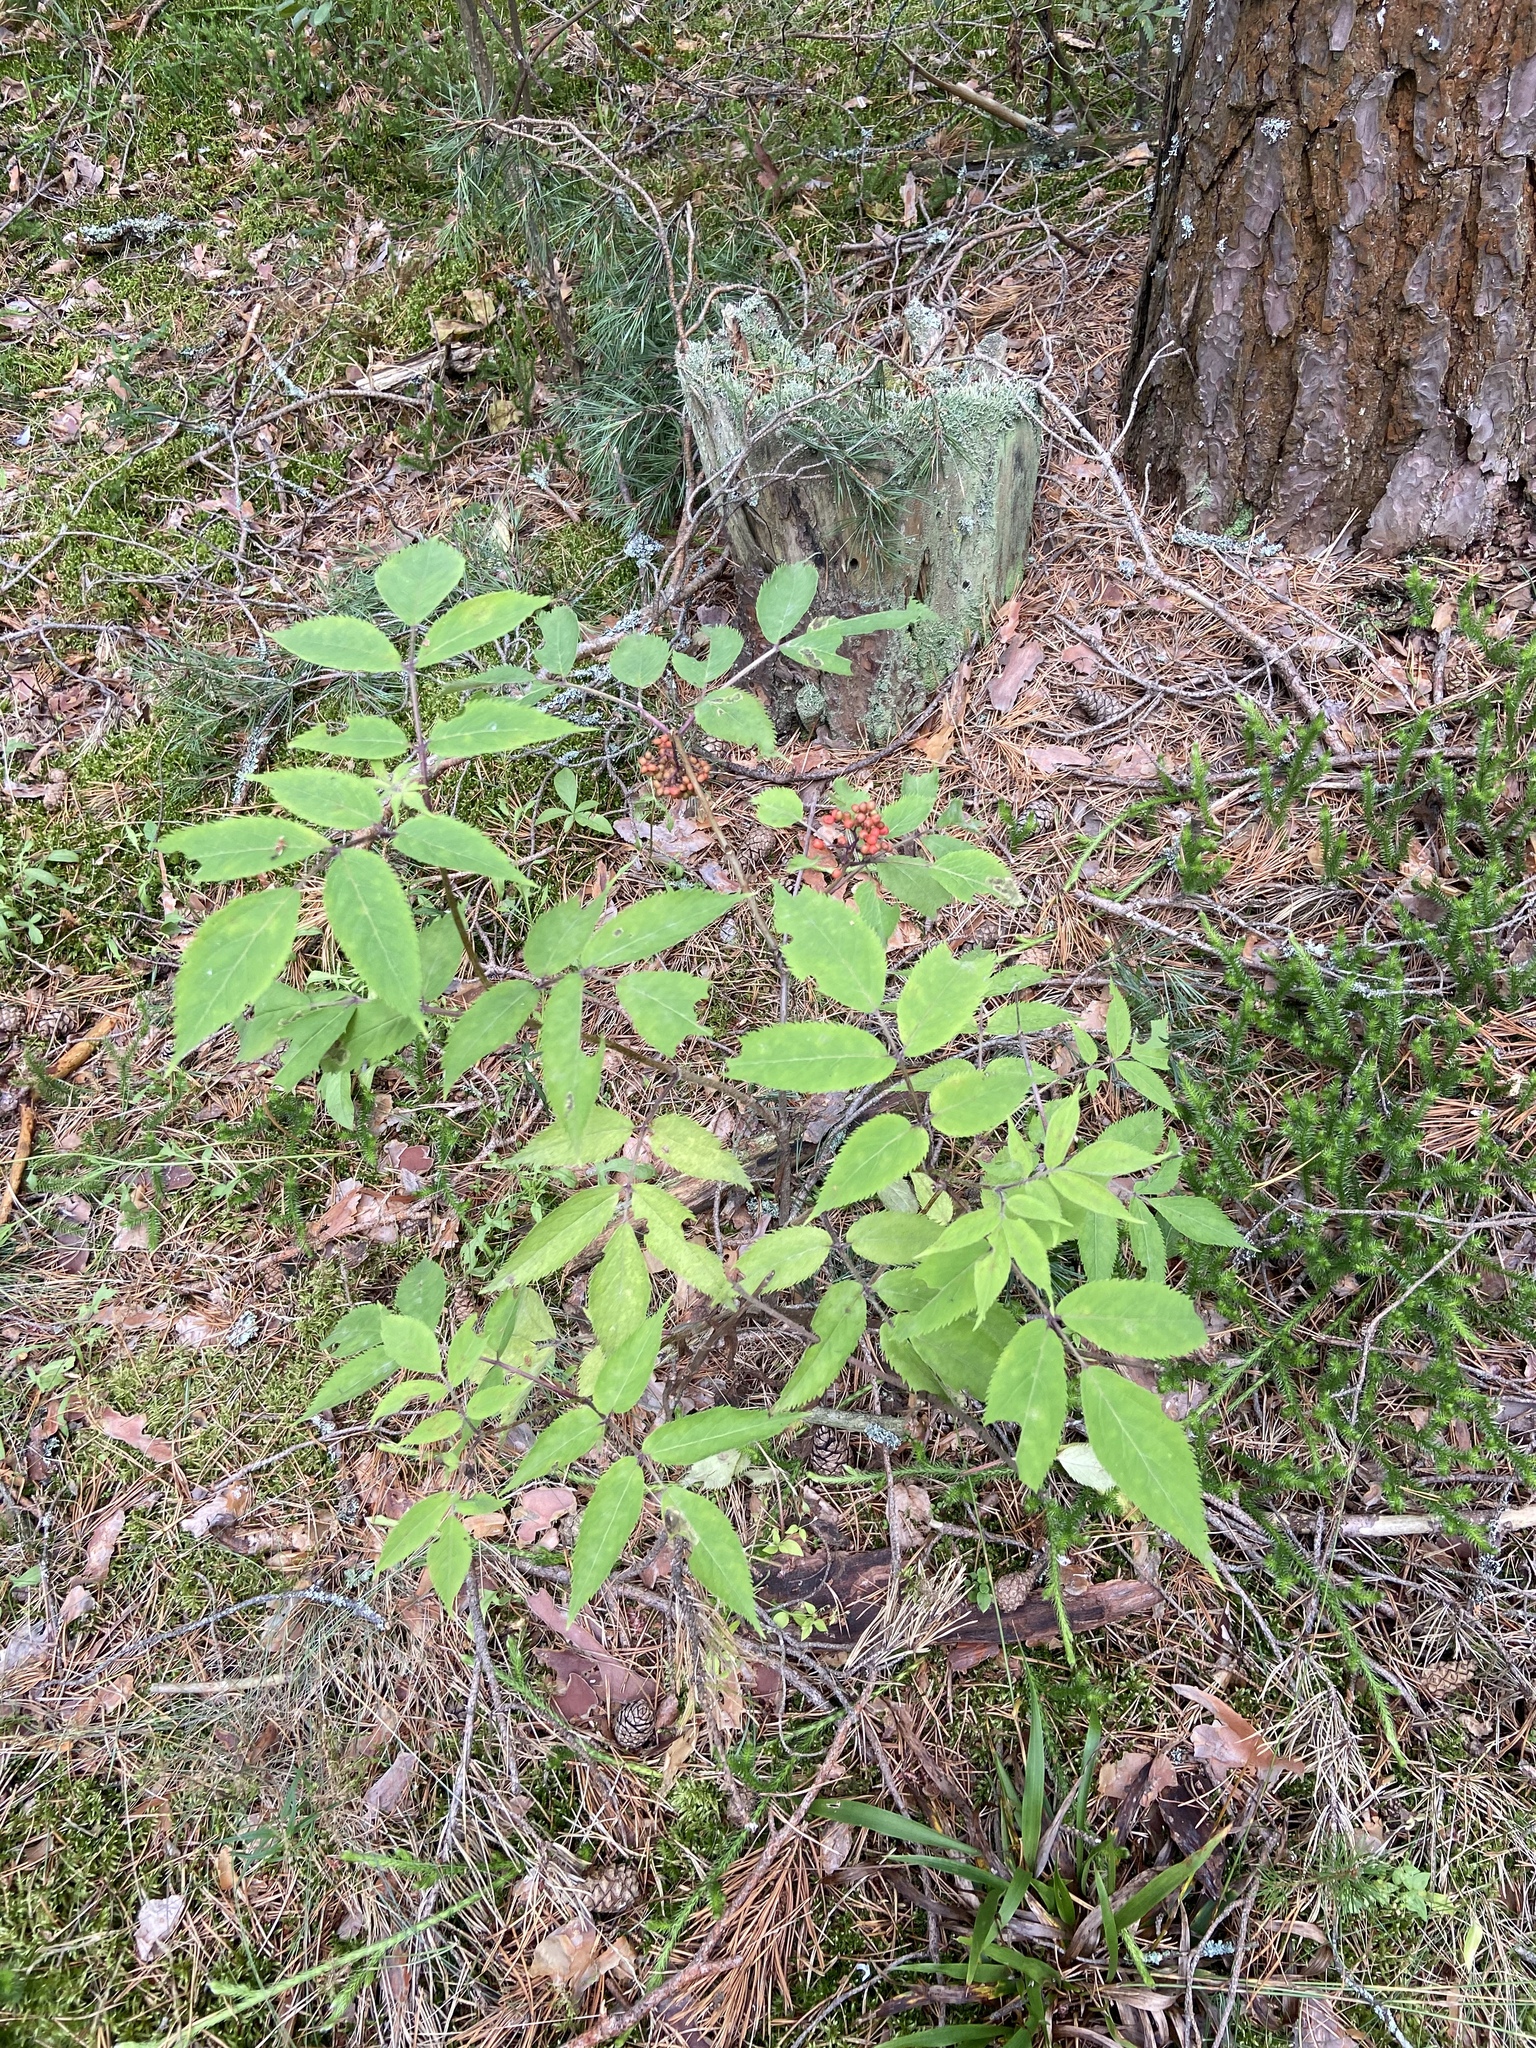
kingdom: Plantae
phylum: Tracheophyta
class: Magnoliopsida
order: Dipsacales
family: Viburnaceae
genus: Sambucus
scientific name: Sambucus racemosa
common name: Red-berried elder
